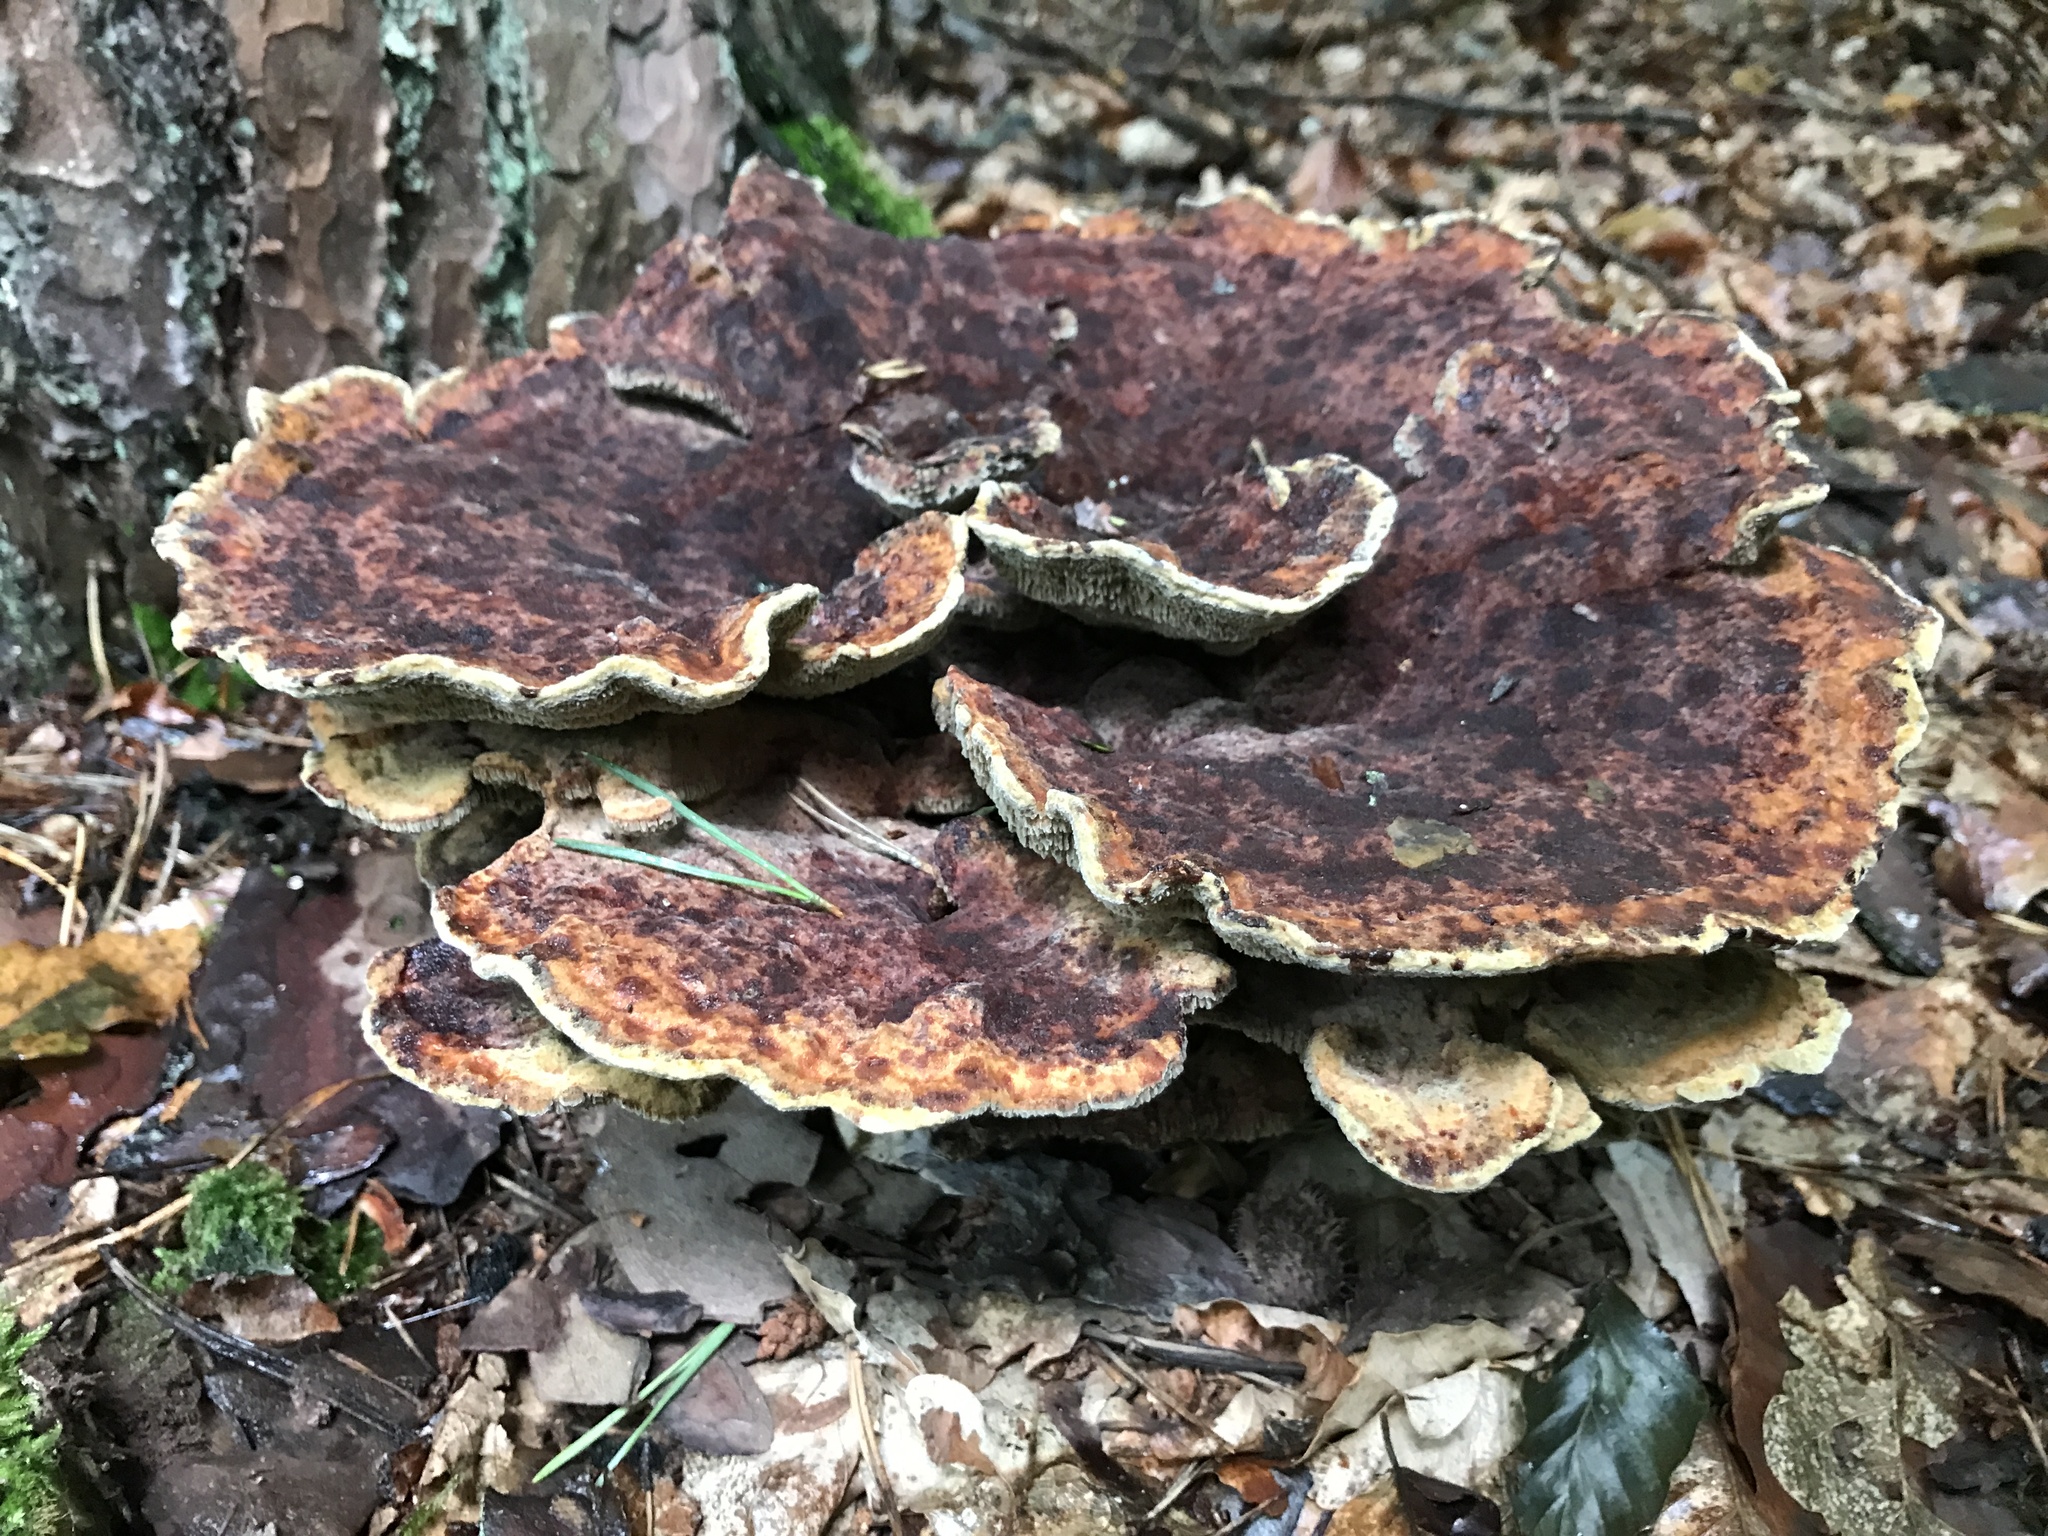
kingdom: Fungi
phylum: Basidiomycota
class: Agaricomycetes
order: Polyporales
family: Laetiporaceae
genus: Phaeolus
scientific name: Phaeolus schweinitzii
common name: Dyer's mazegill
